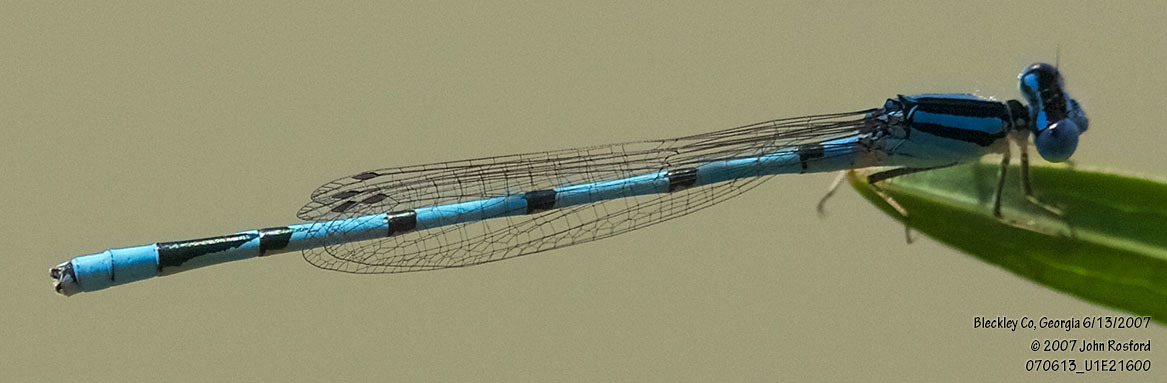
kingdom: Animalia
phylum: Arthropoda
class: Insecta
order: Odonata
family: Coenagrionidae
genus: Enallagma
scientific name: Enallagma doubledayi
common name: Atlantic bluet
